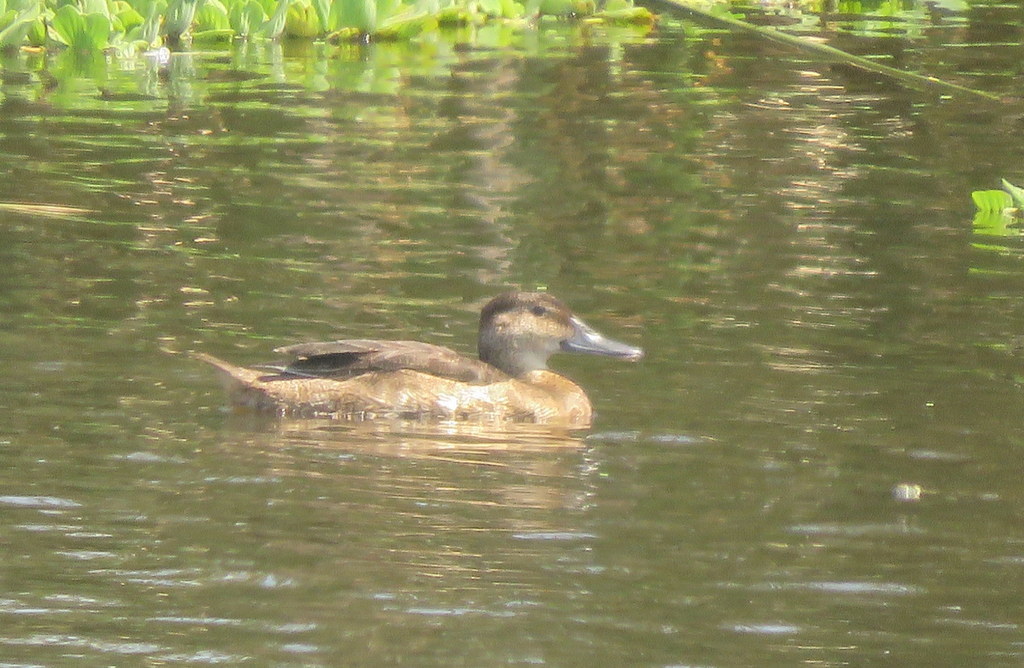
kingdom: Animalia
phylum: Chordata
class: Aves
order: Anseriformes
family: Anatidae
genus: Heteronetta
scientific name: Heteronetta atricapilla
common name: Black-headed duck
